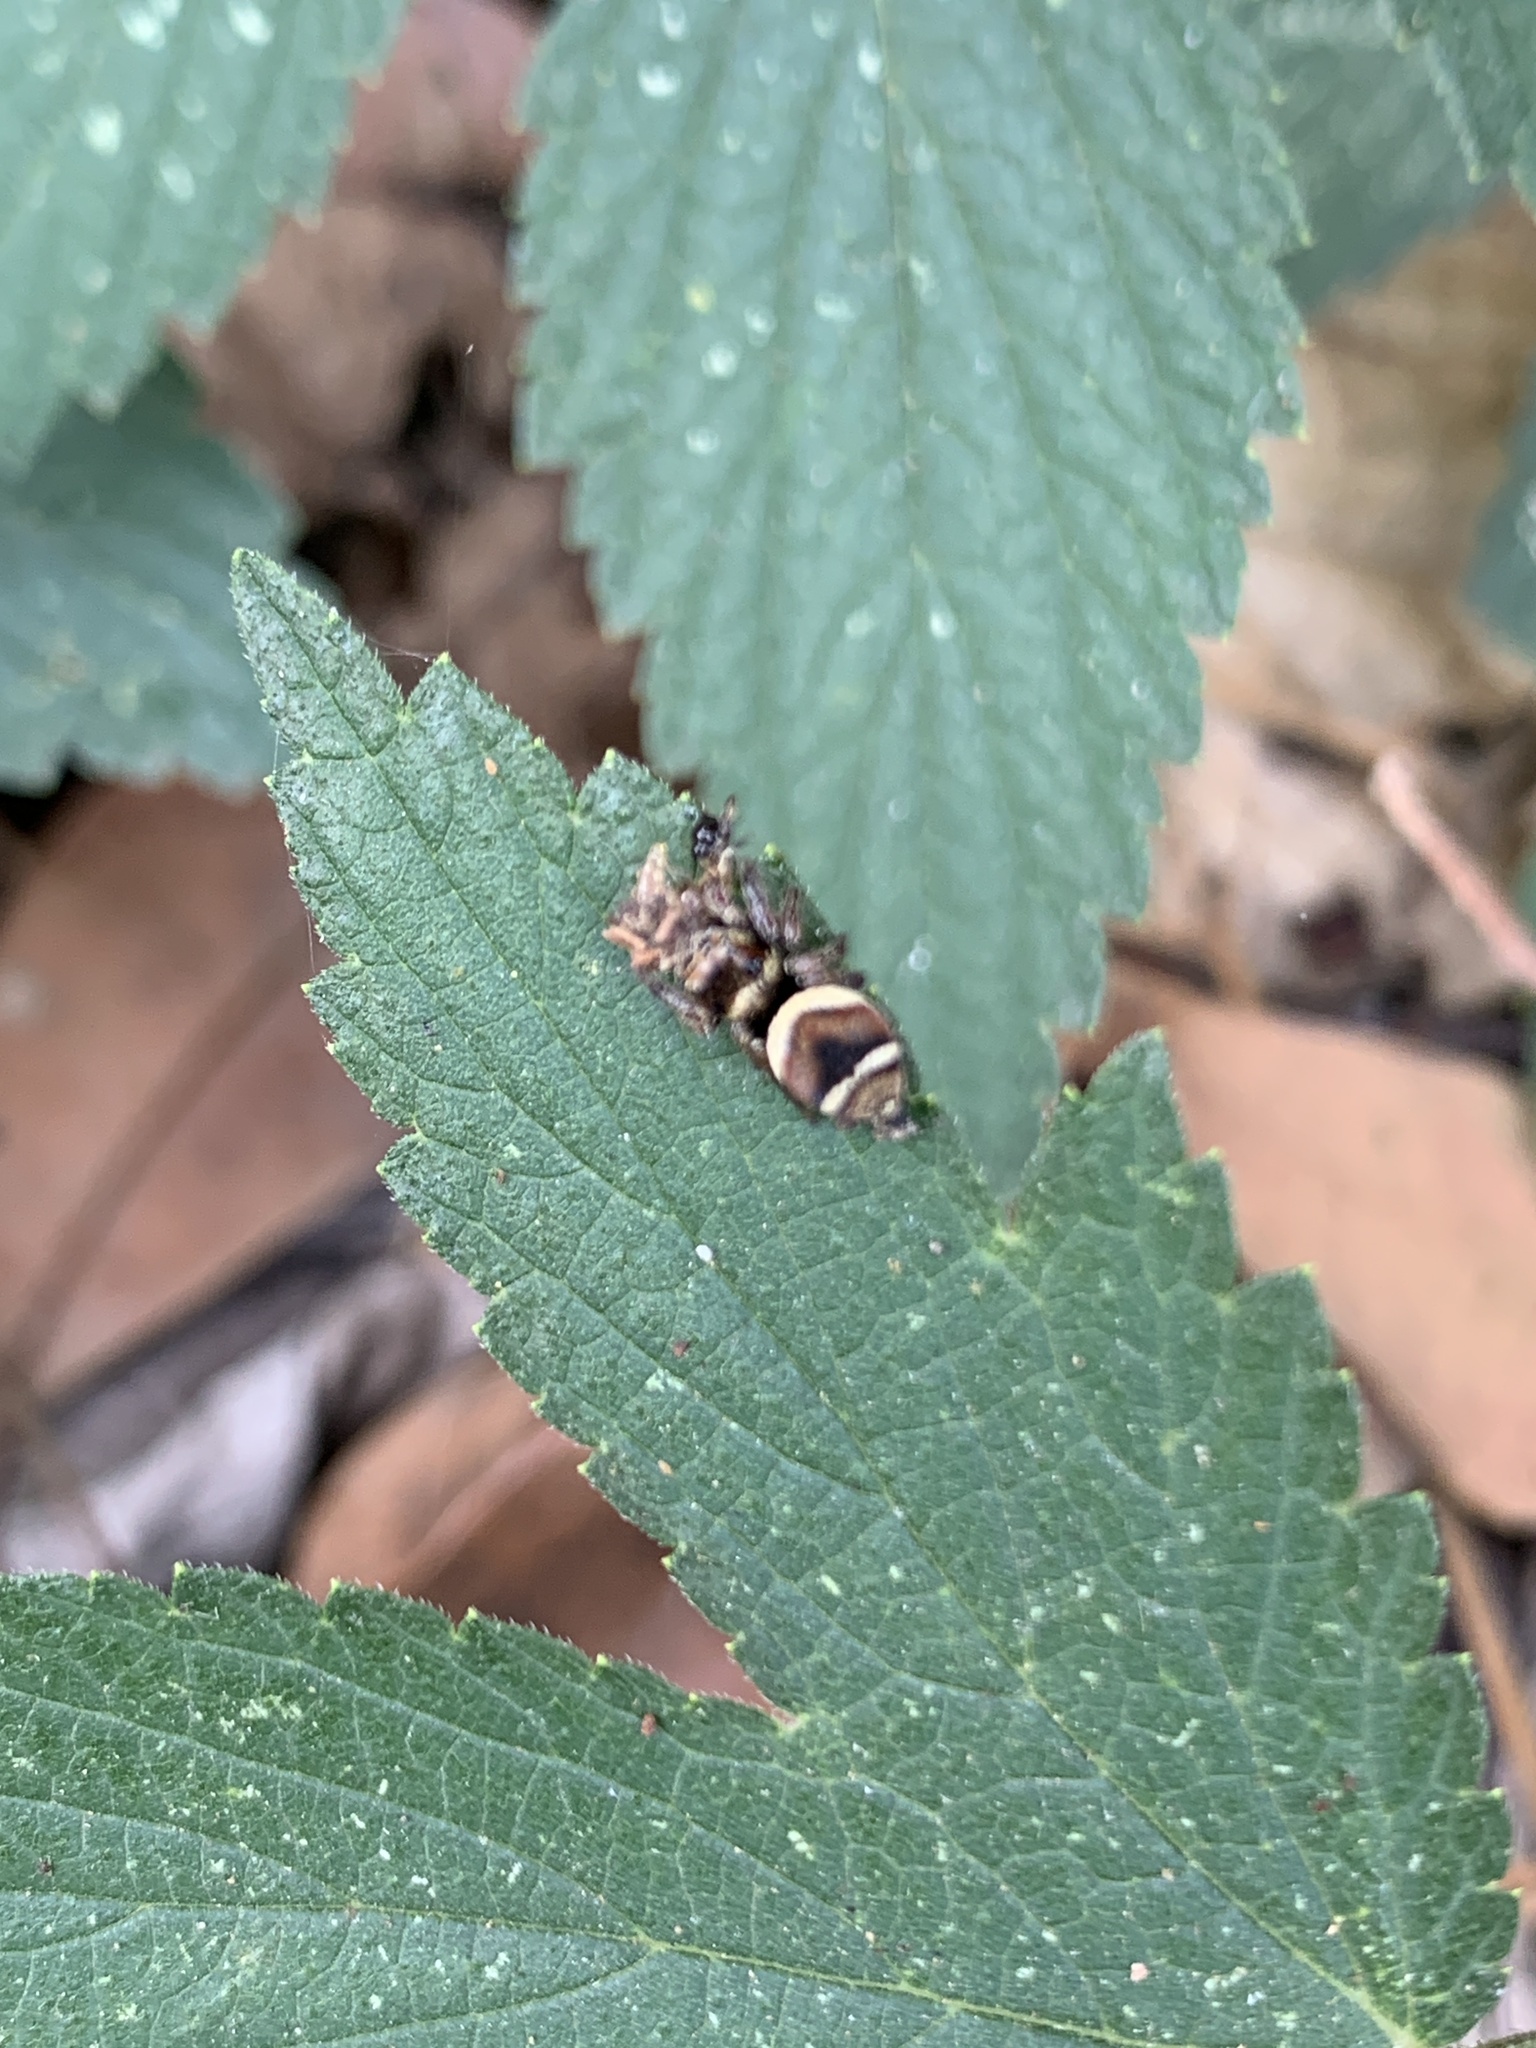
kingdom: Animalia
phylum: Arthropoda
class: Arachnida
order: Araneae
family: Salticidae
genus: Ptocasius
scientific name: Ptocasius strupifer
